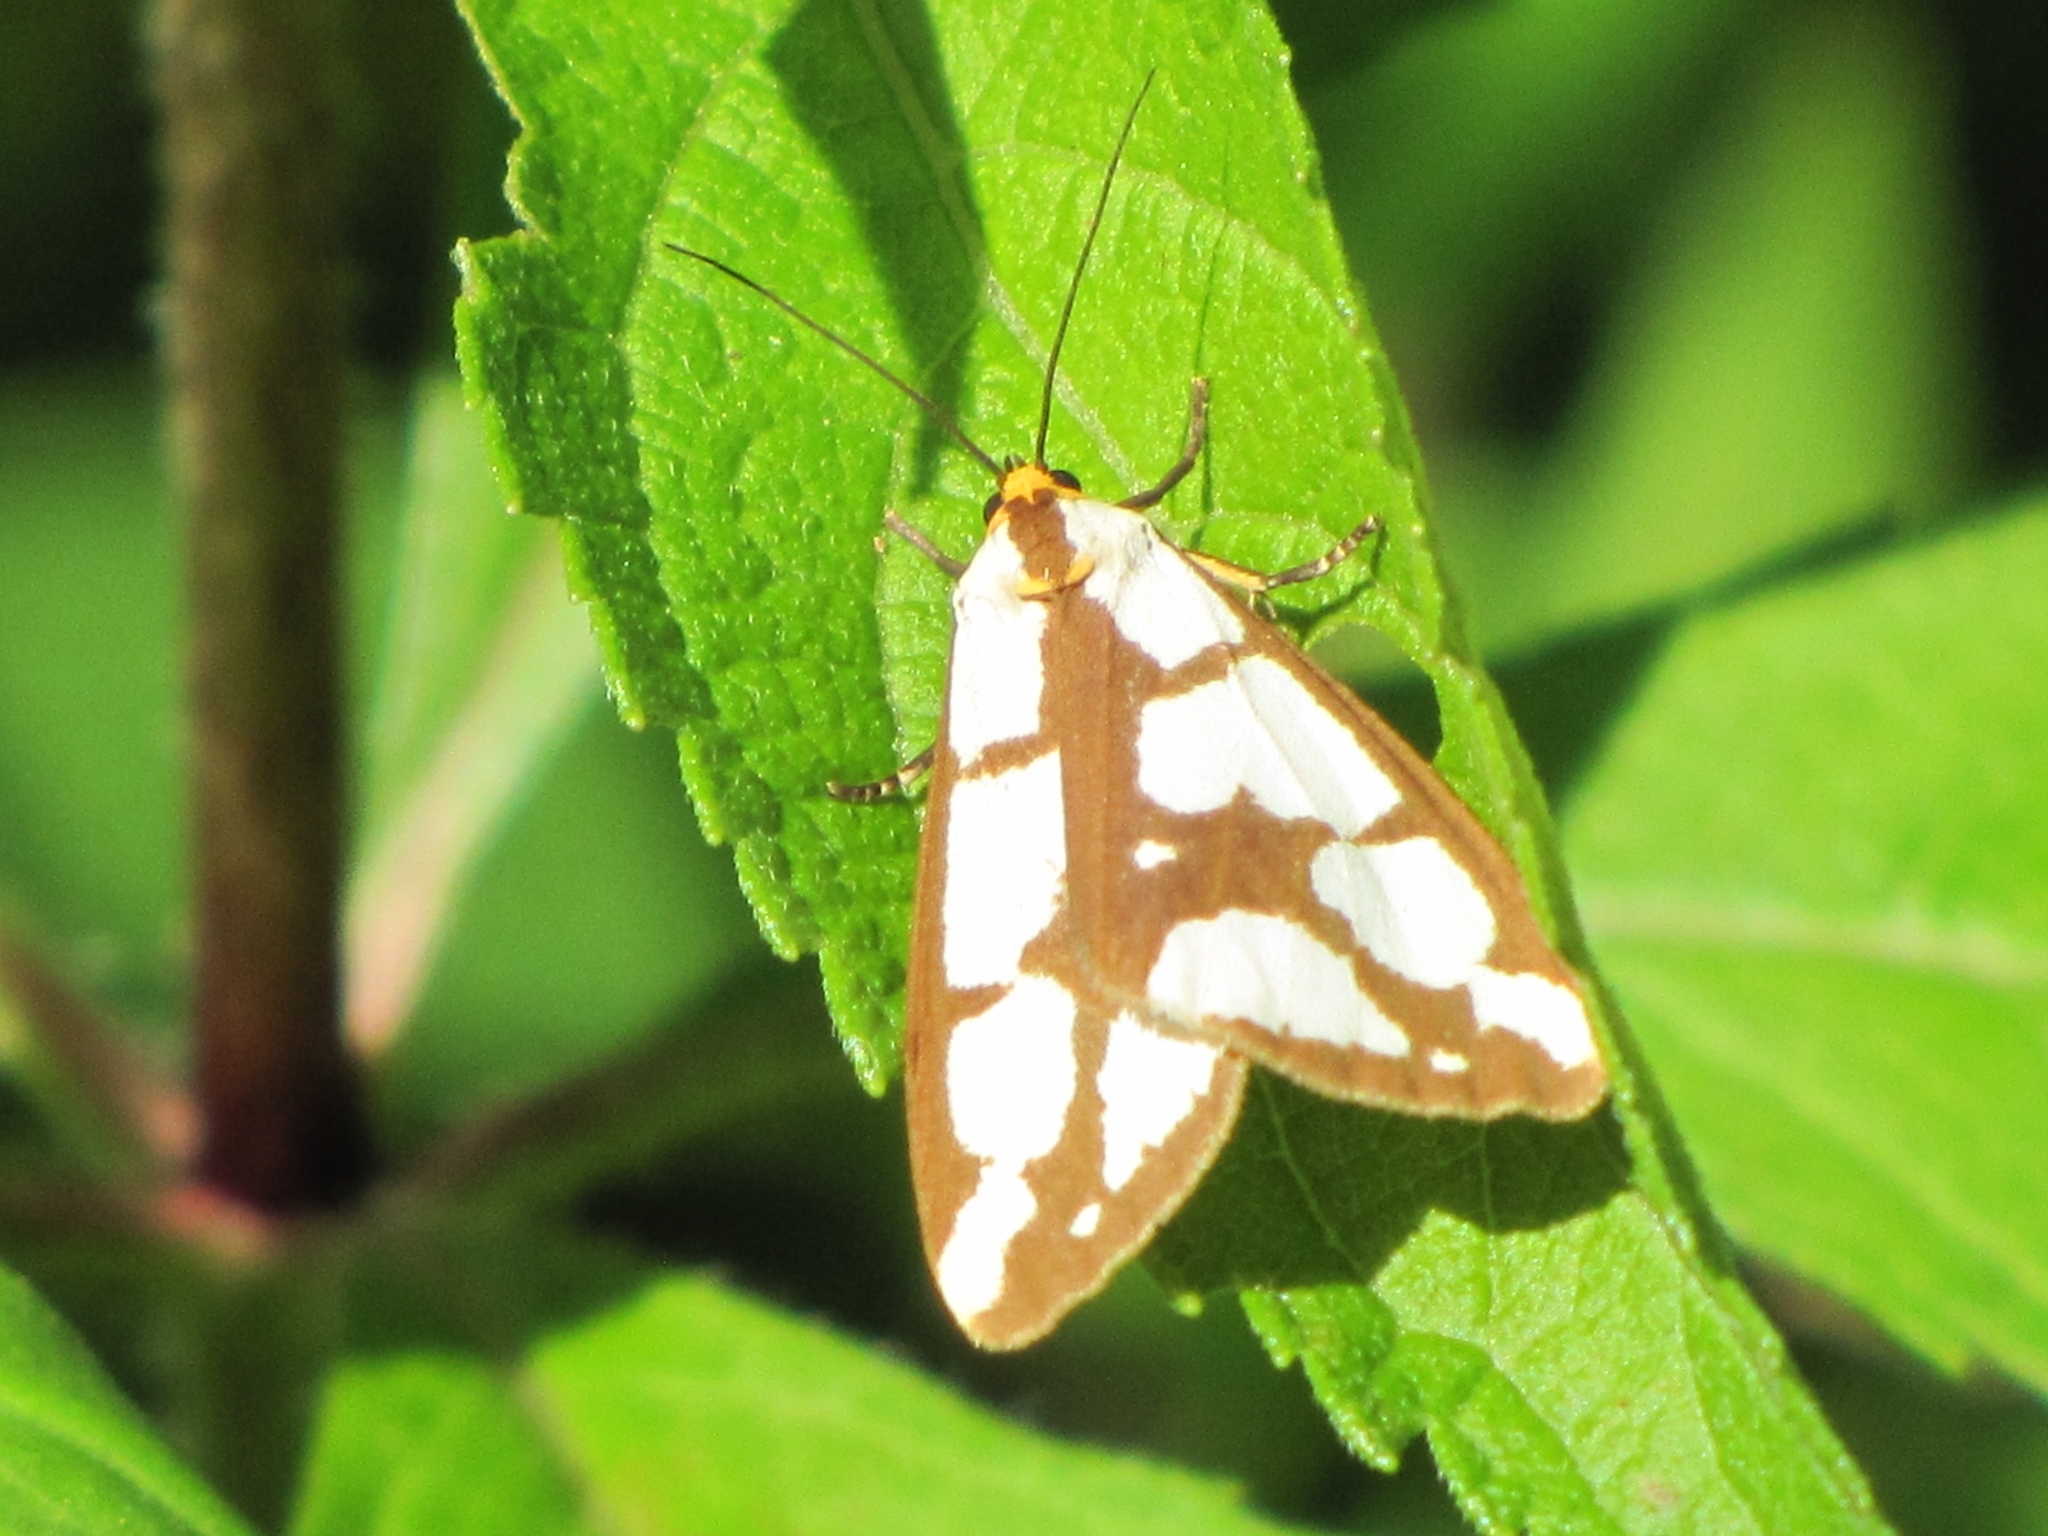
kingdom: Animalia
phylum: Arthropoda
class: Insecta
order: Lepidoptera
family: Erebidae
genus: Haploa
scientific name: Haploa confusa
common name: Confused haploa moth
